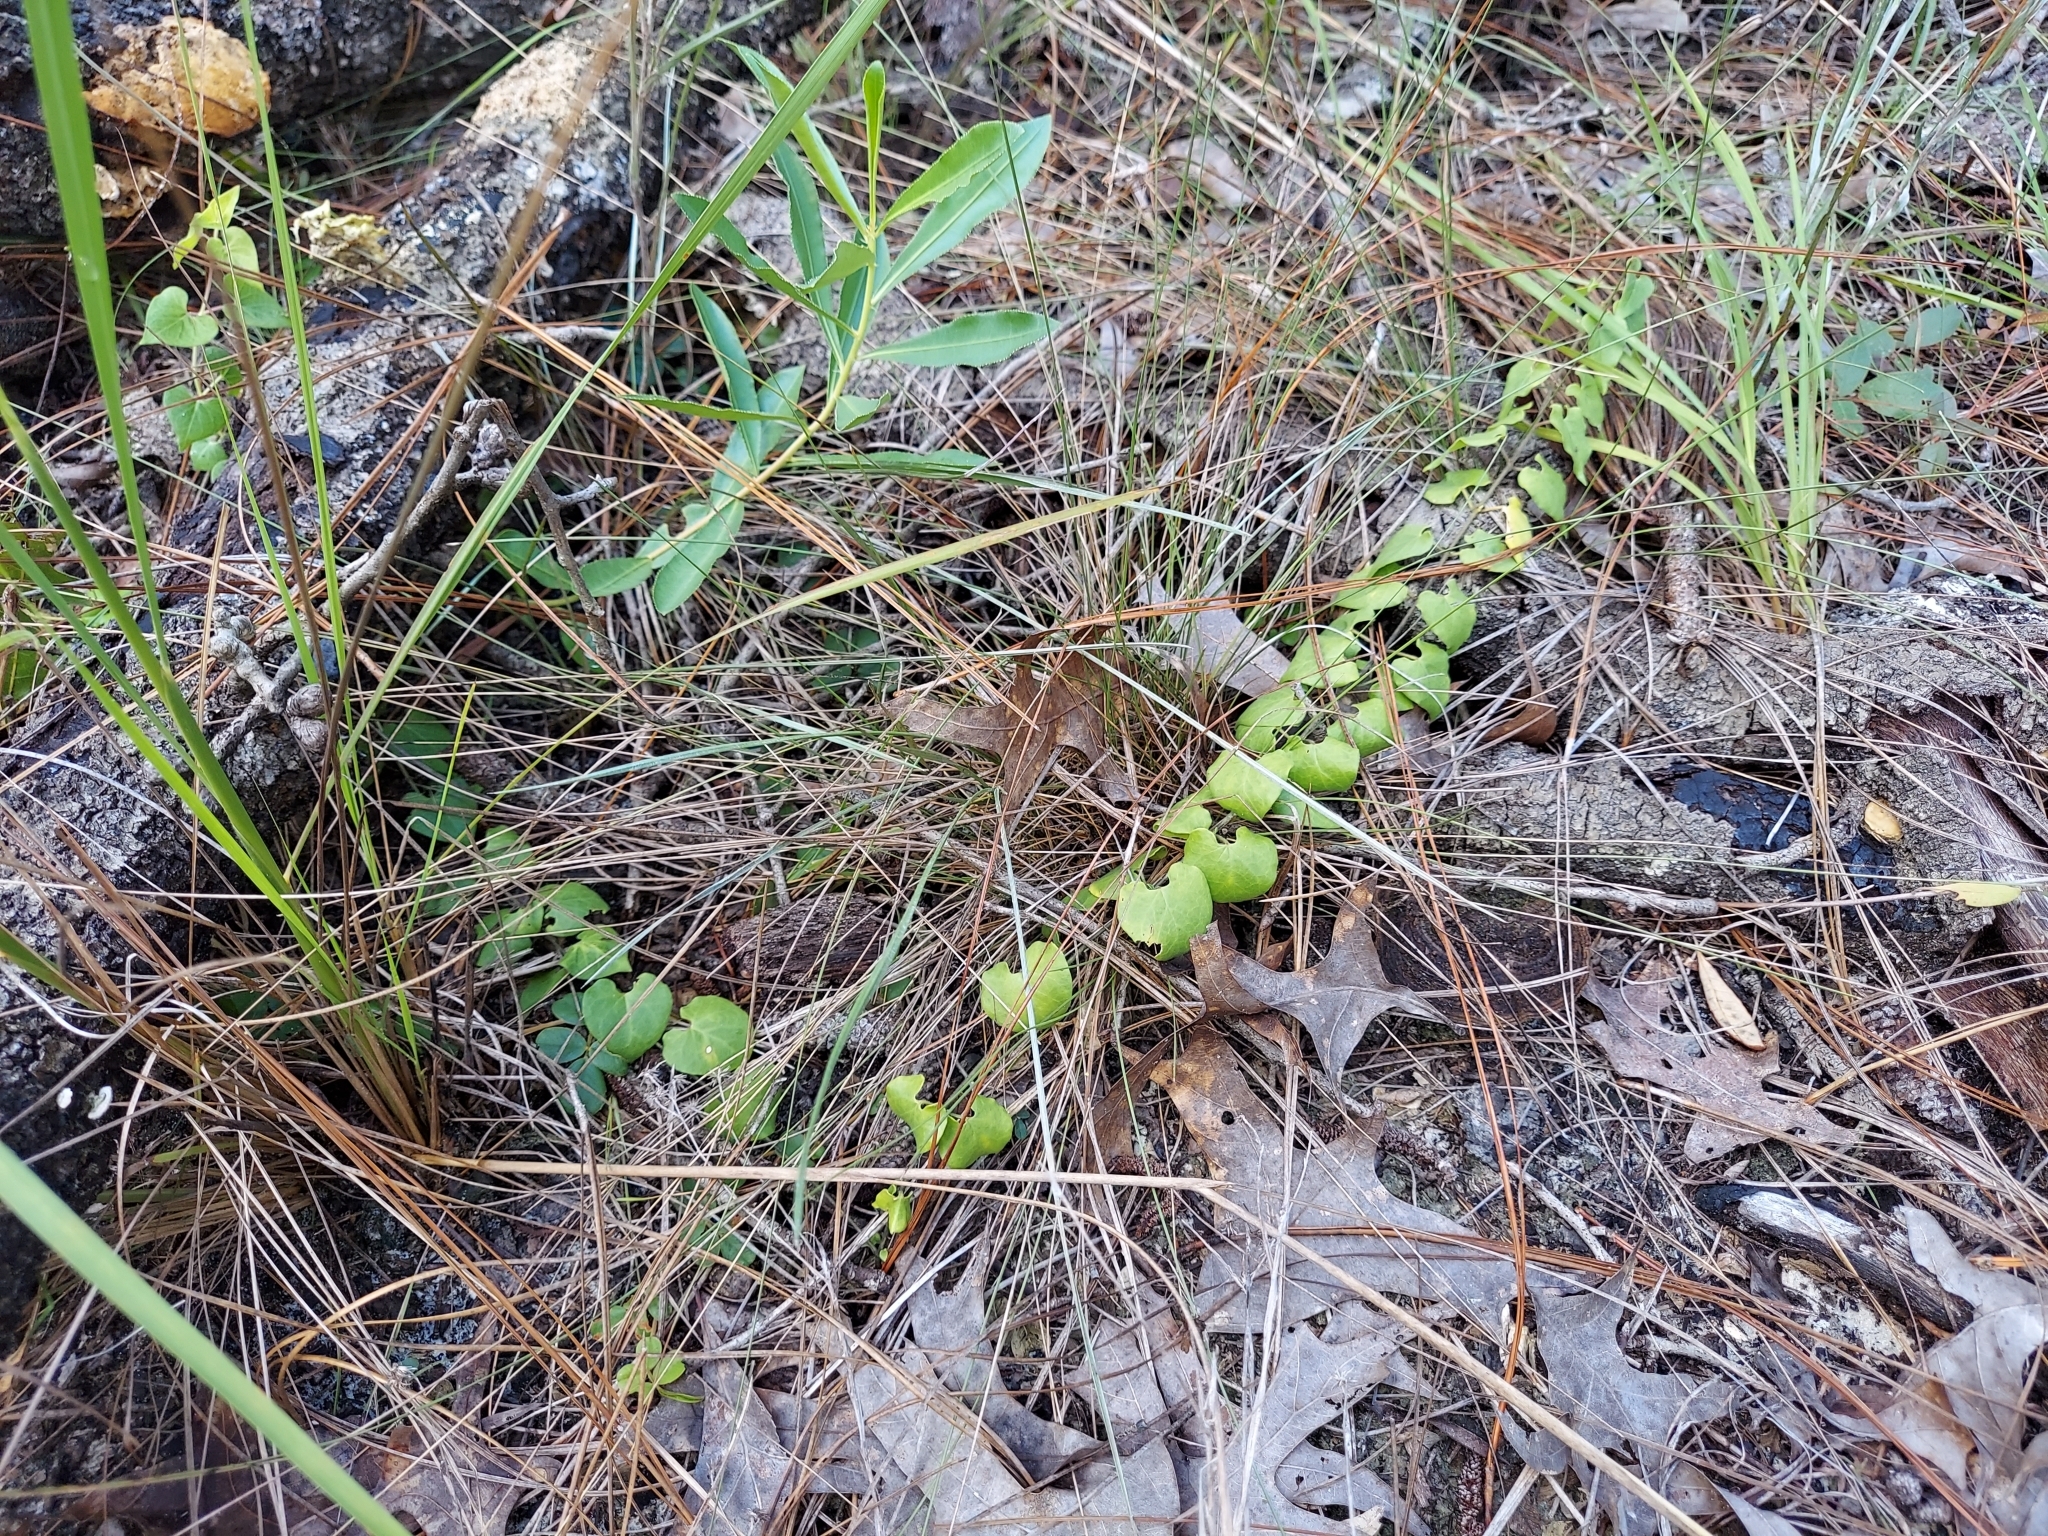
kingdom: Plantae
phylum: Tracheophyta
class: Magnoliopsida
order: Gentianales
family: Apocynaceae
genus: Chthamalia
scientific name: Chthamalia pubiflora
